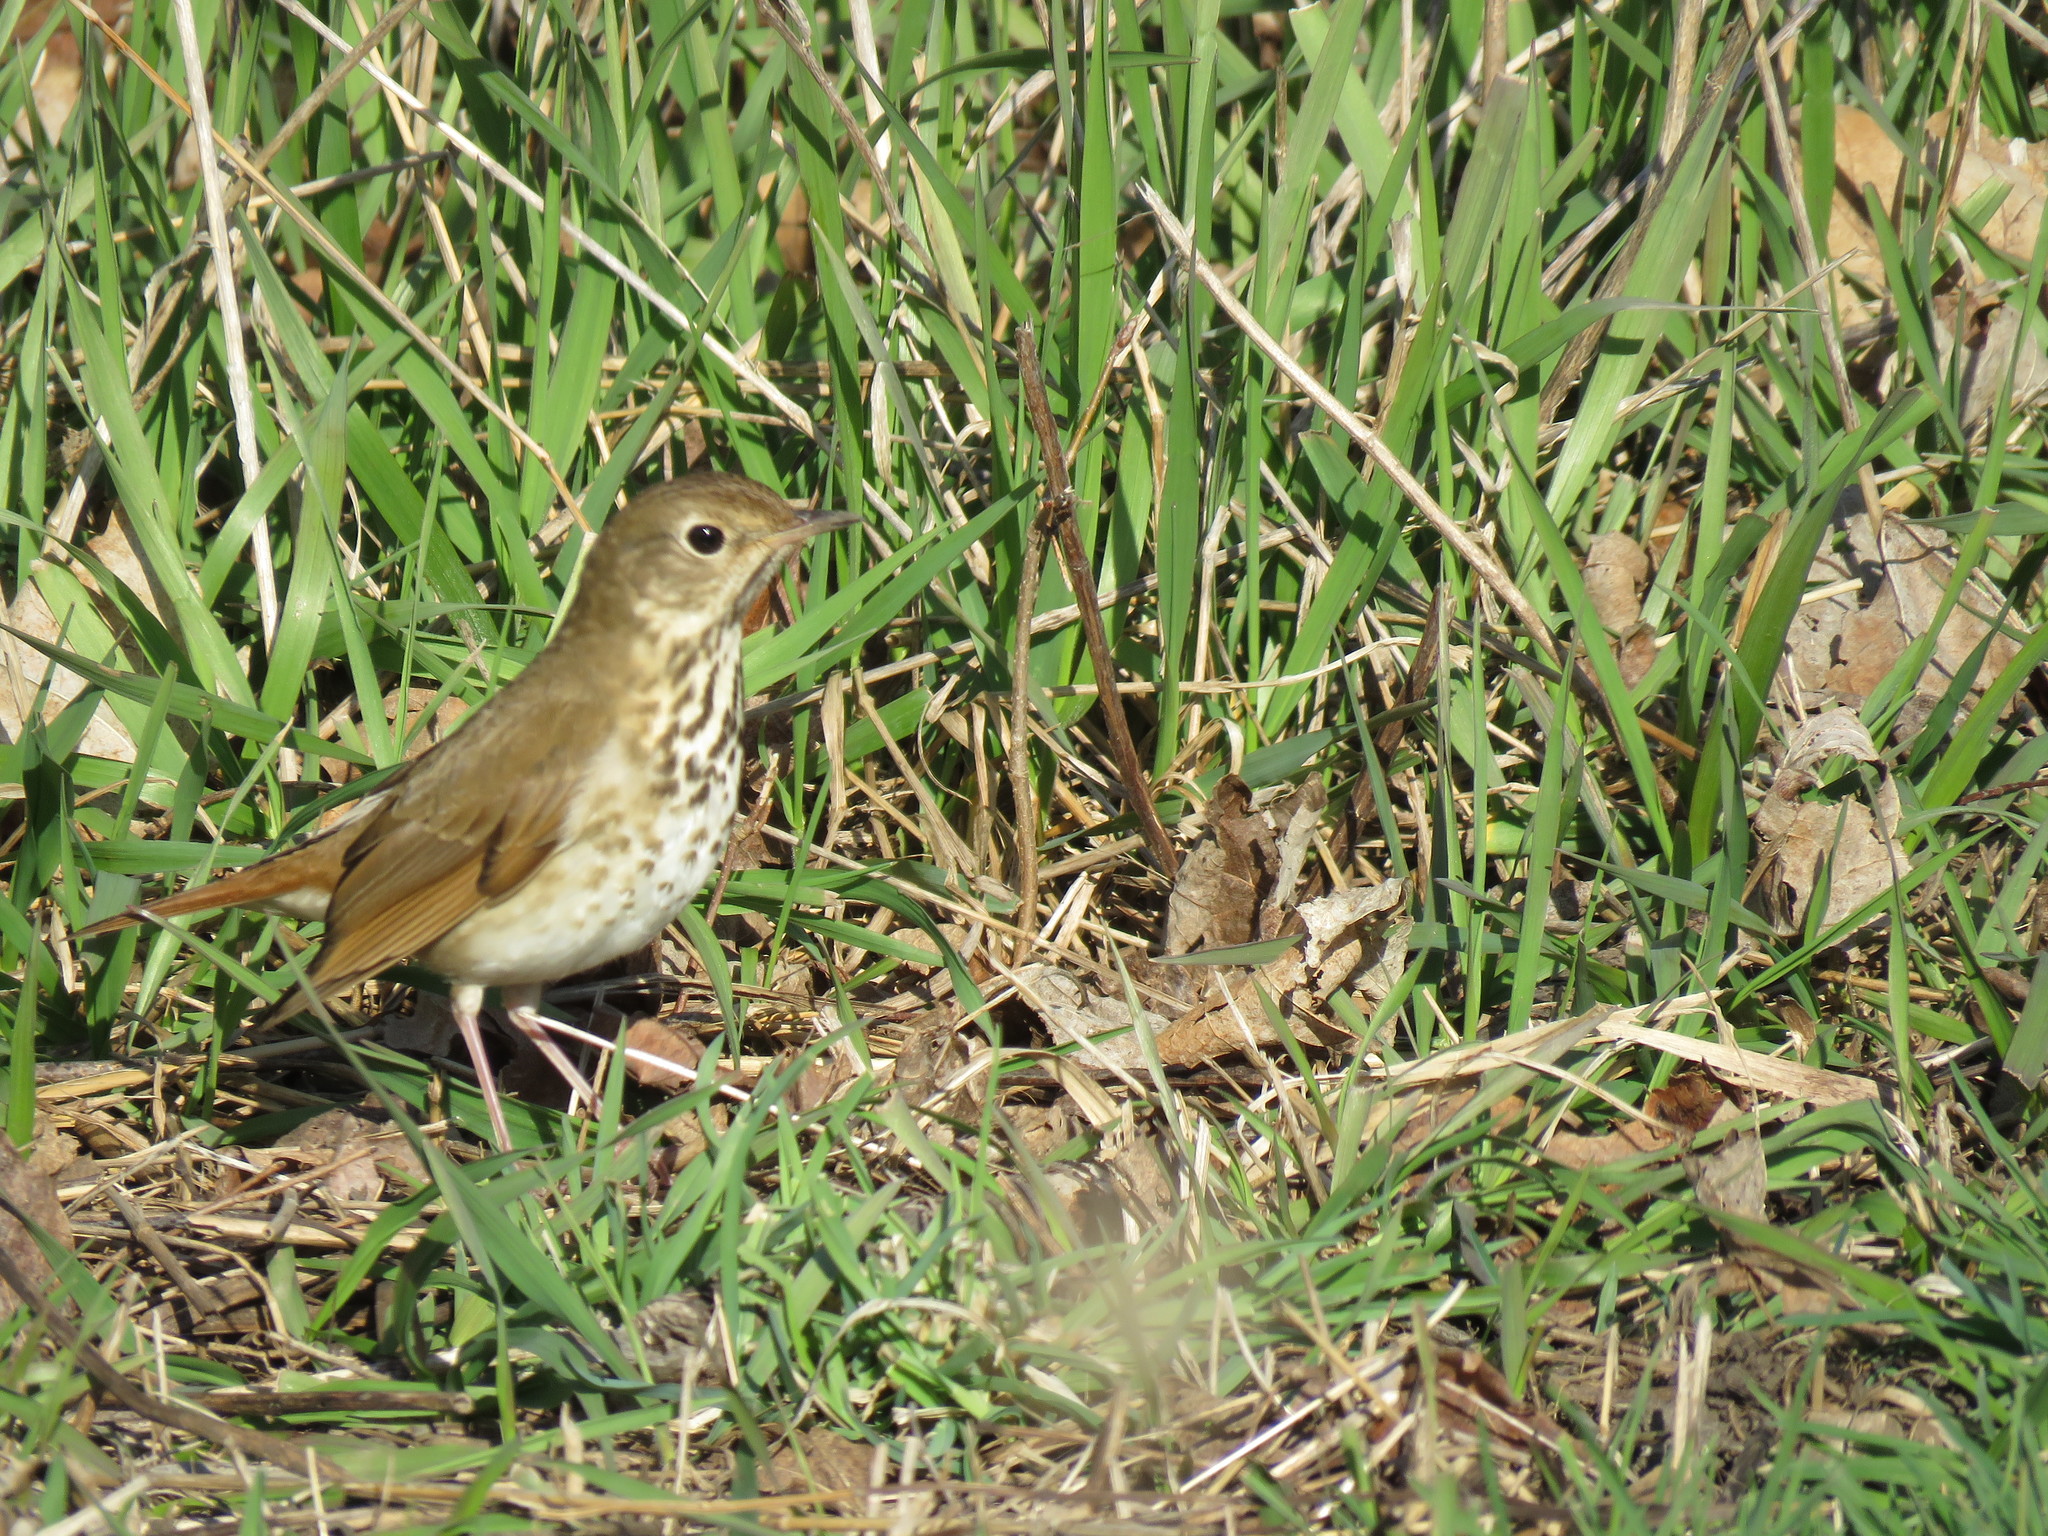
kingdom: Animalia
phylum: Chordata
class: Aves
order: Passeriformes
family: Turdidae
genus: Catharus
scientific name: Catharus guttatus
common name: Hermit thrush
